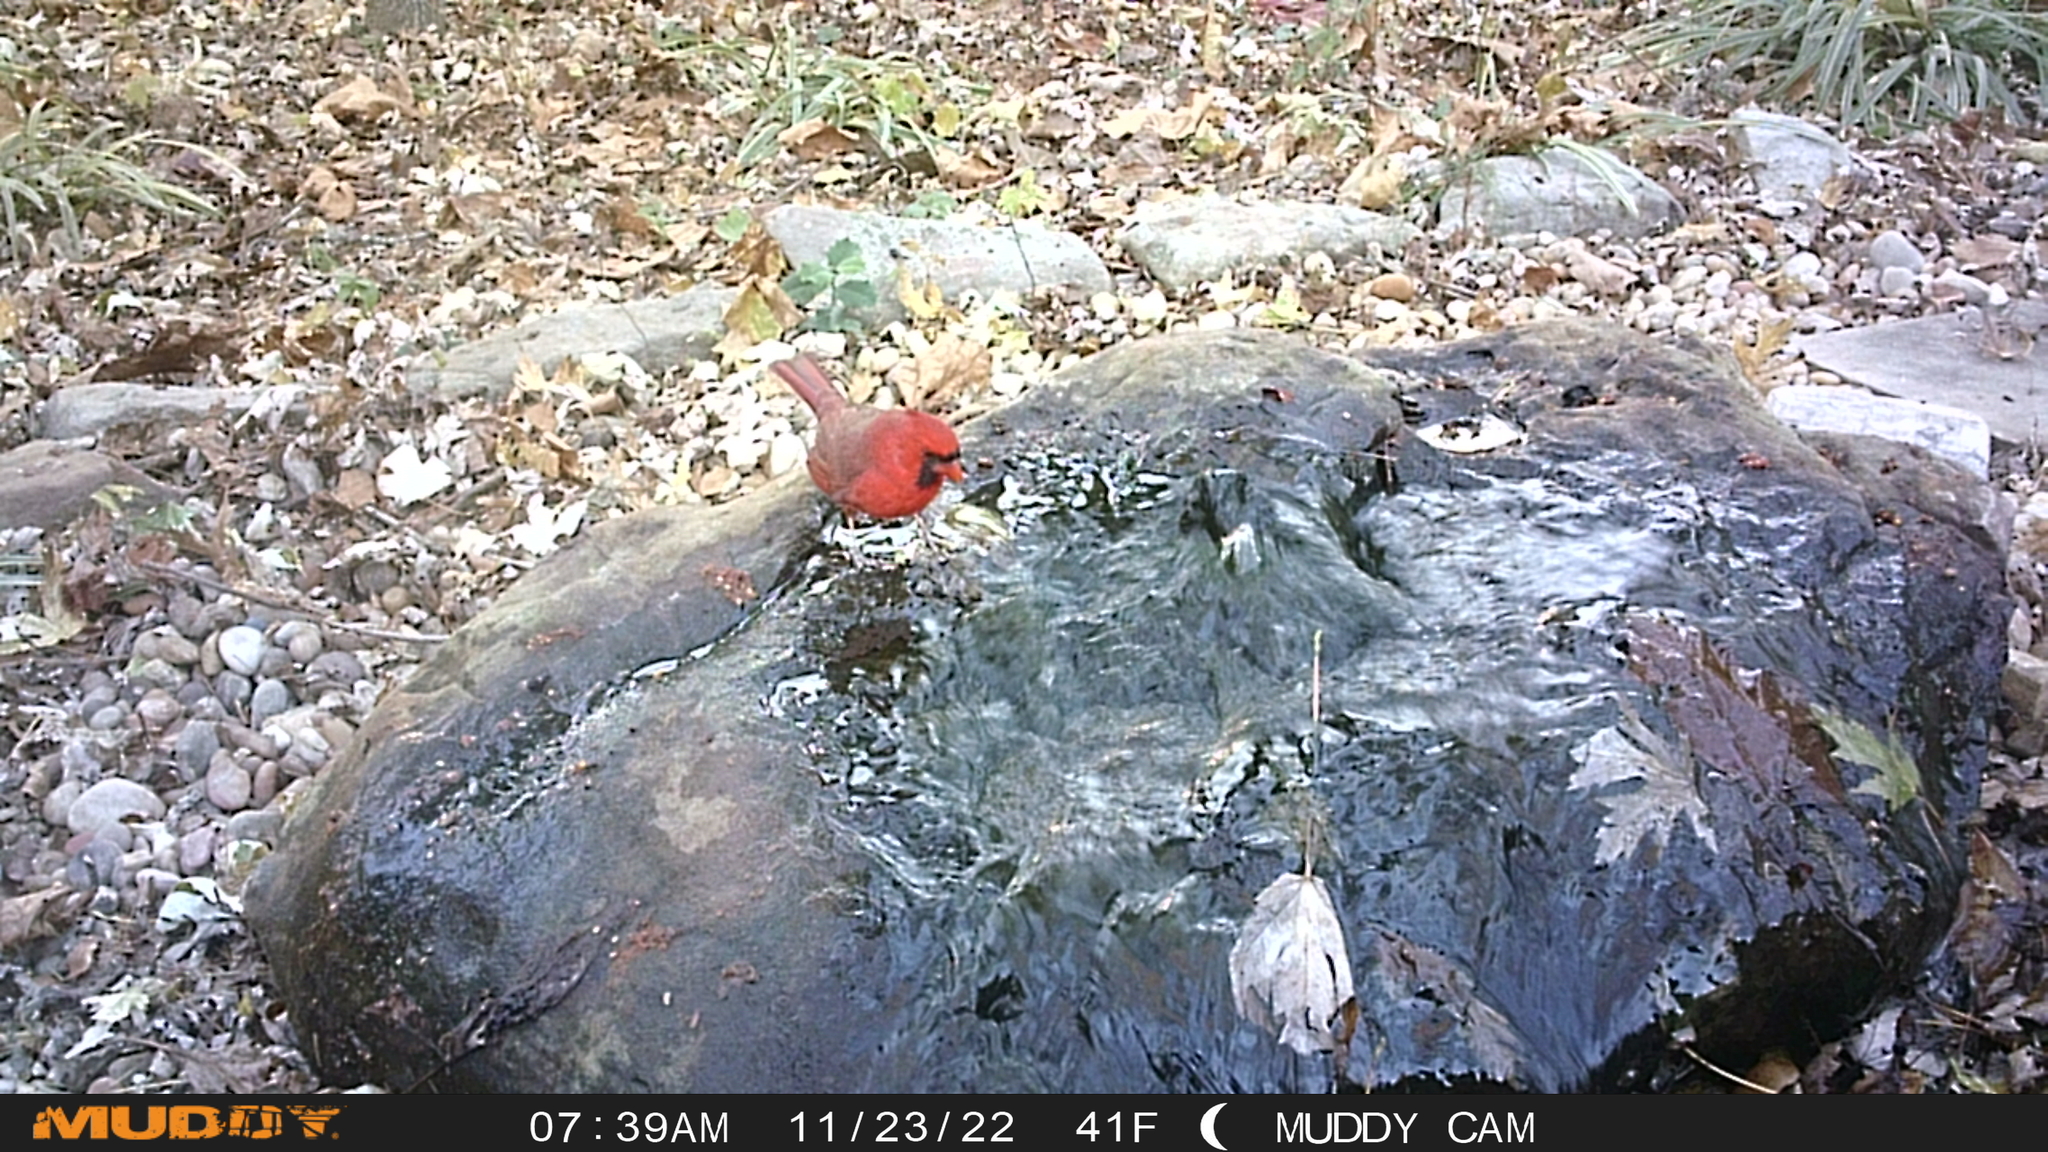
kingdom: Animalia
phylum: Chordata
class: Aves
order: Passeriformes
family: Cardinalidae
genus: Cardinalis
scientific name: Cardinalis cardinalis
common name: Northern cardinal
